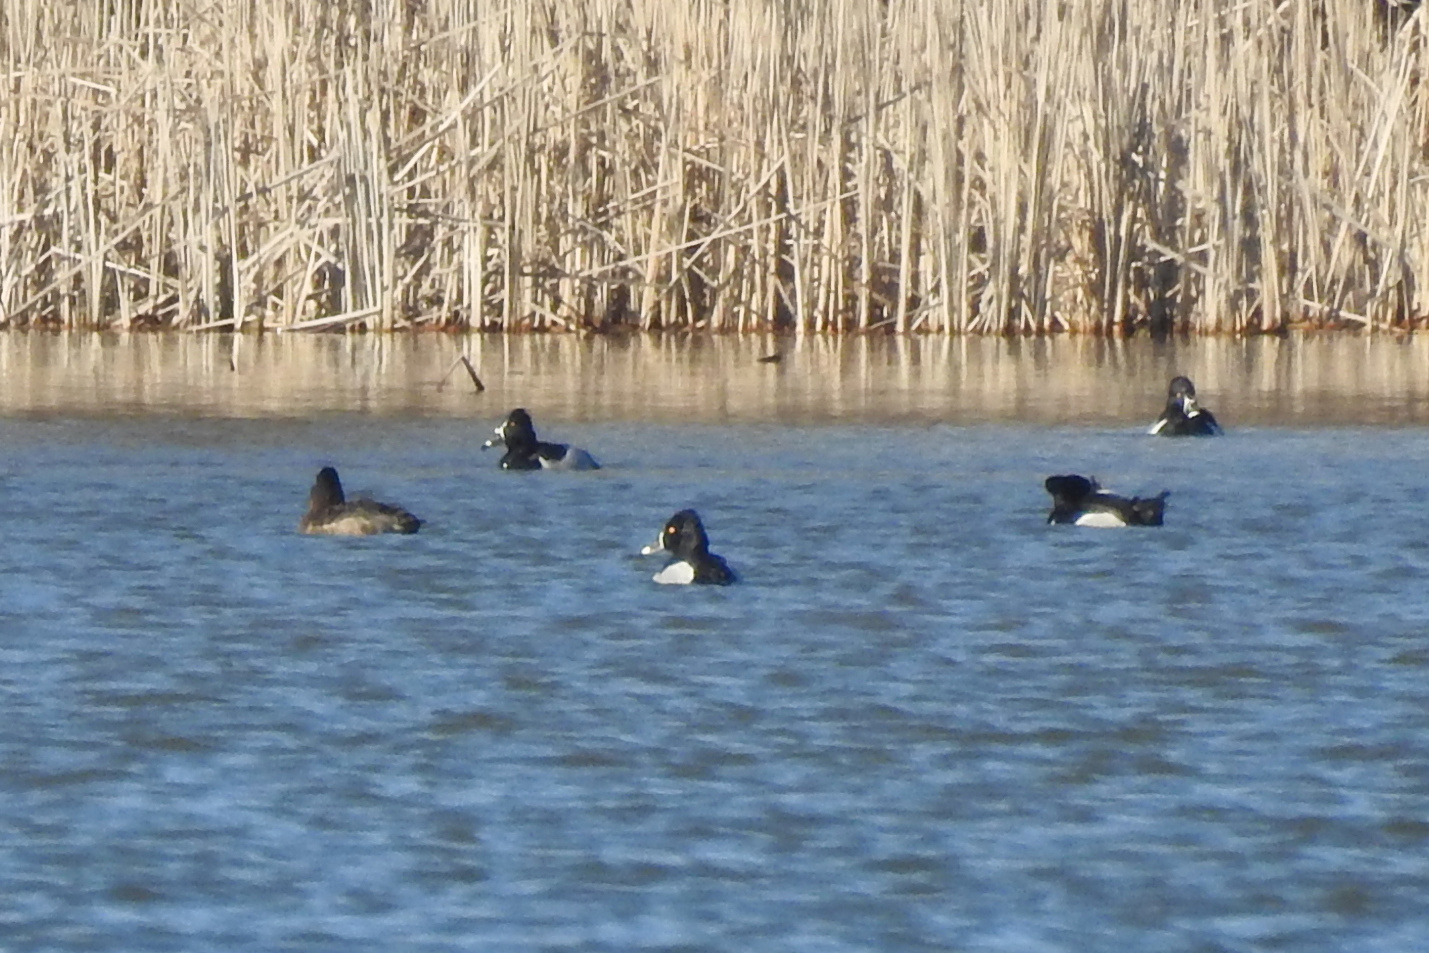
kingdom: Animalia
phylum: Chordata
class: Aves
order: Anseriformes
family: Anatidae
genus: Aythya
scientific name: Aythya collaris
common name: Ring-necked duck
